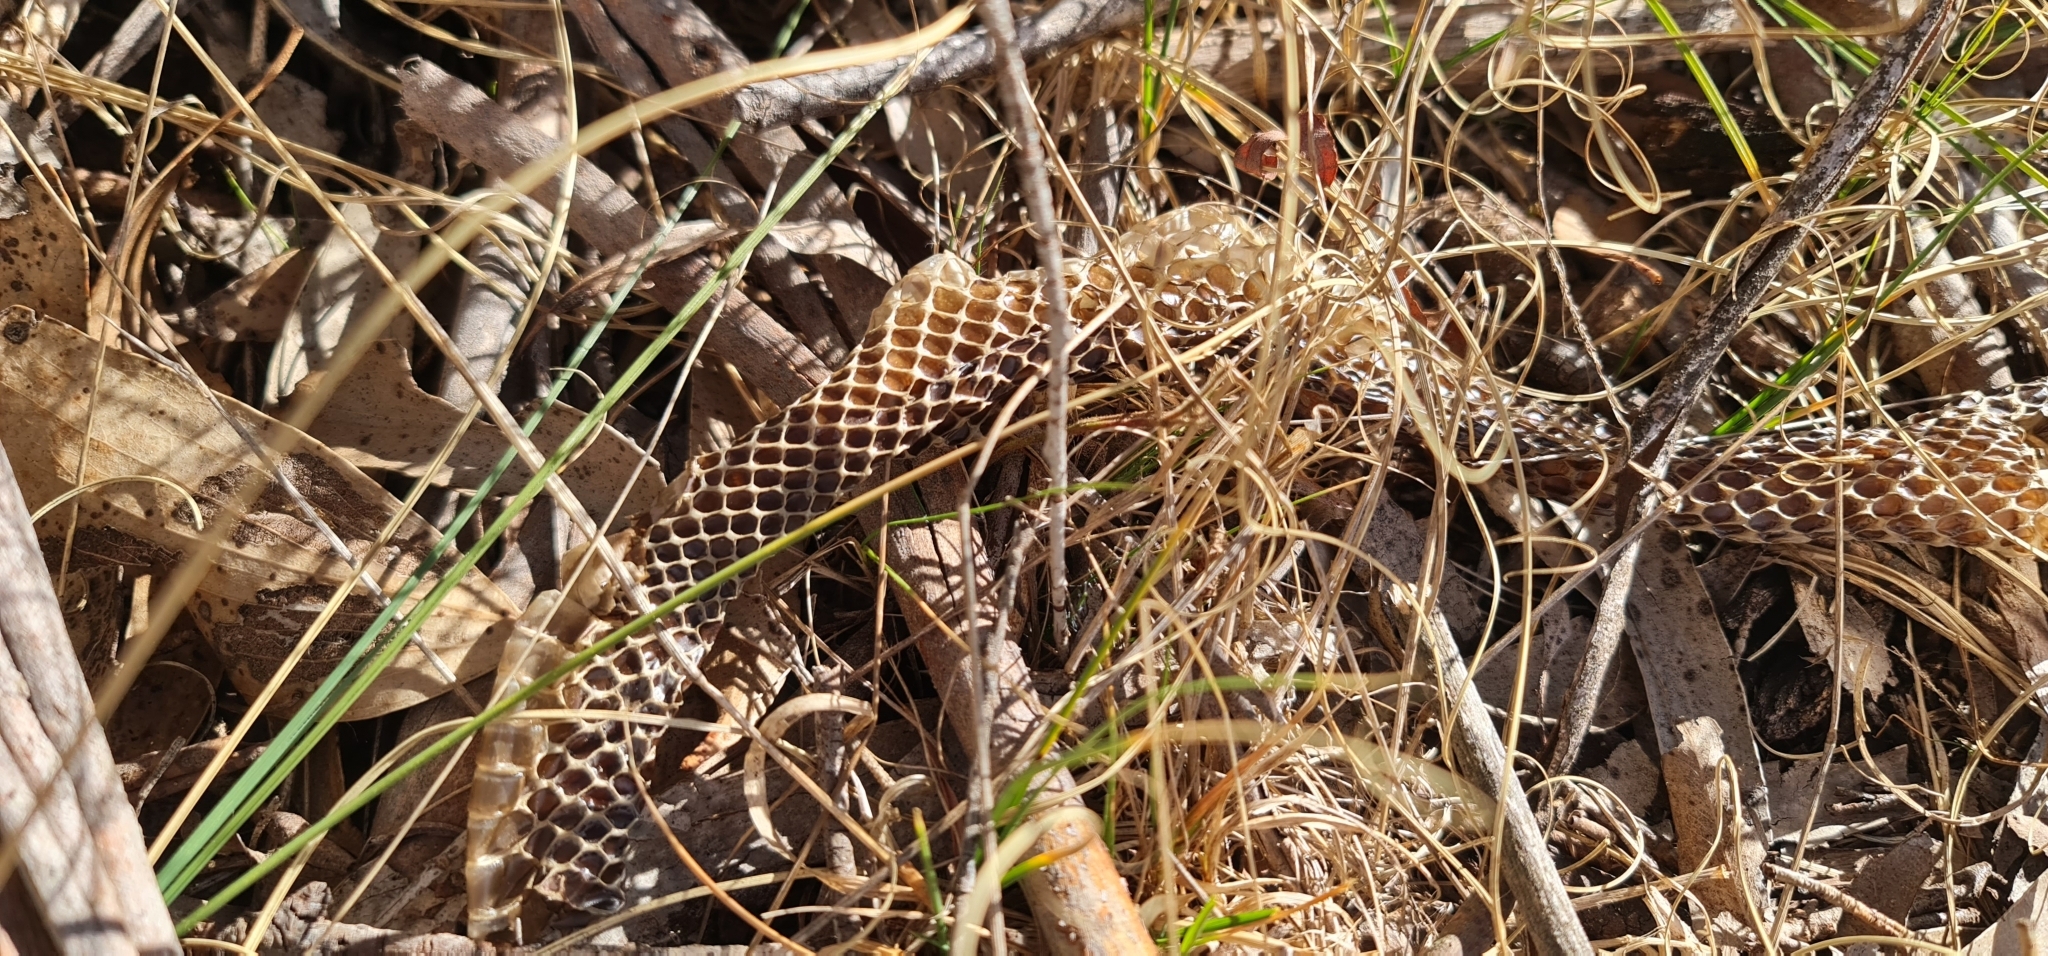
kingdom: Animalia
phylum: Chordata
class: Squamata
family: Elapidae
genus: Pseudechis
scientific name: Pseudechis porphyriacus
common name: Australian black snake
